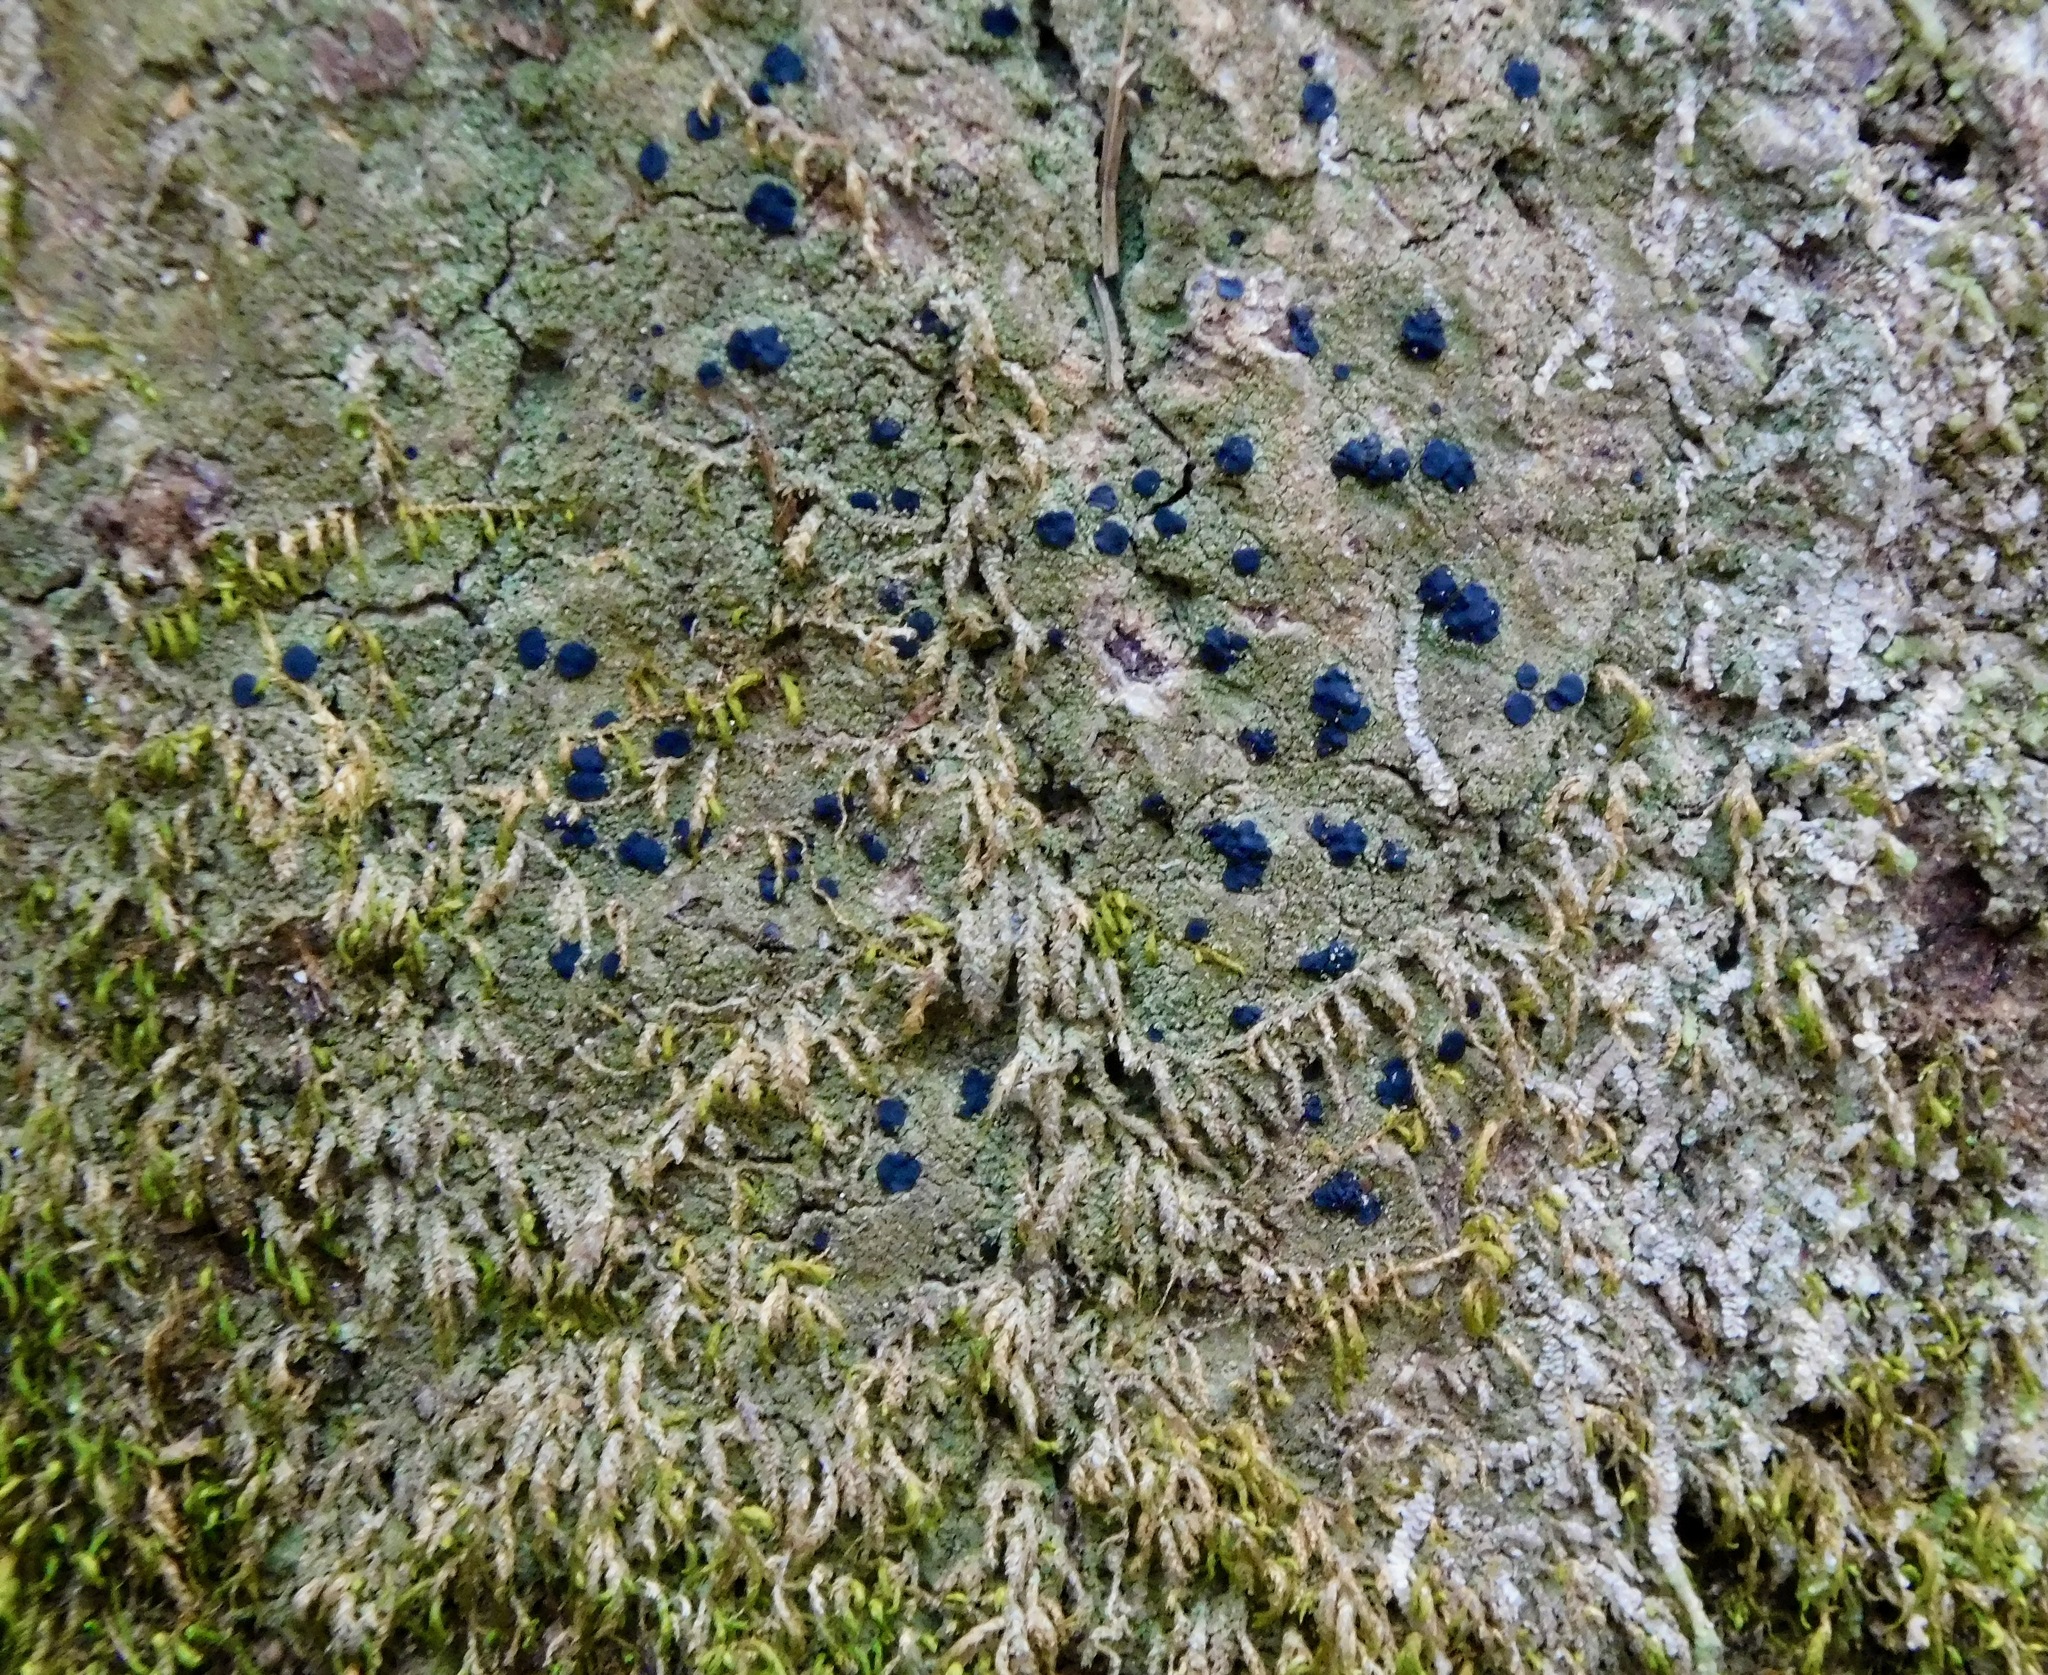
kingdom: Fungi
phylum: Ascomycota
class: Lecanoromycetes
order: Lecanorales
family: Ramalinaceae
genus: Bacidia
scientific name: Bacidia schweinitzii
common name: Surprise lichen
